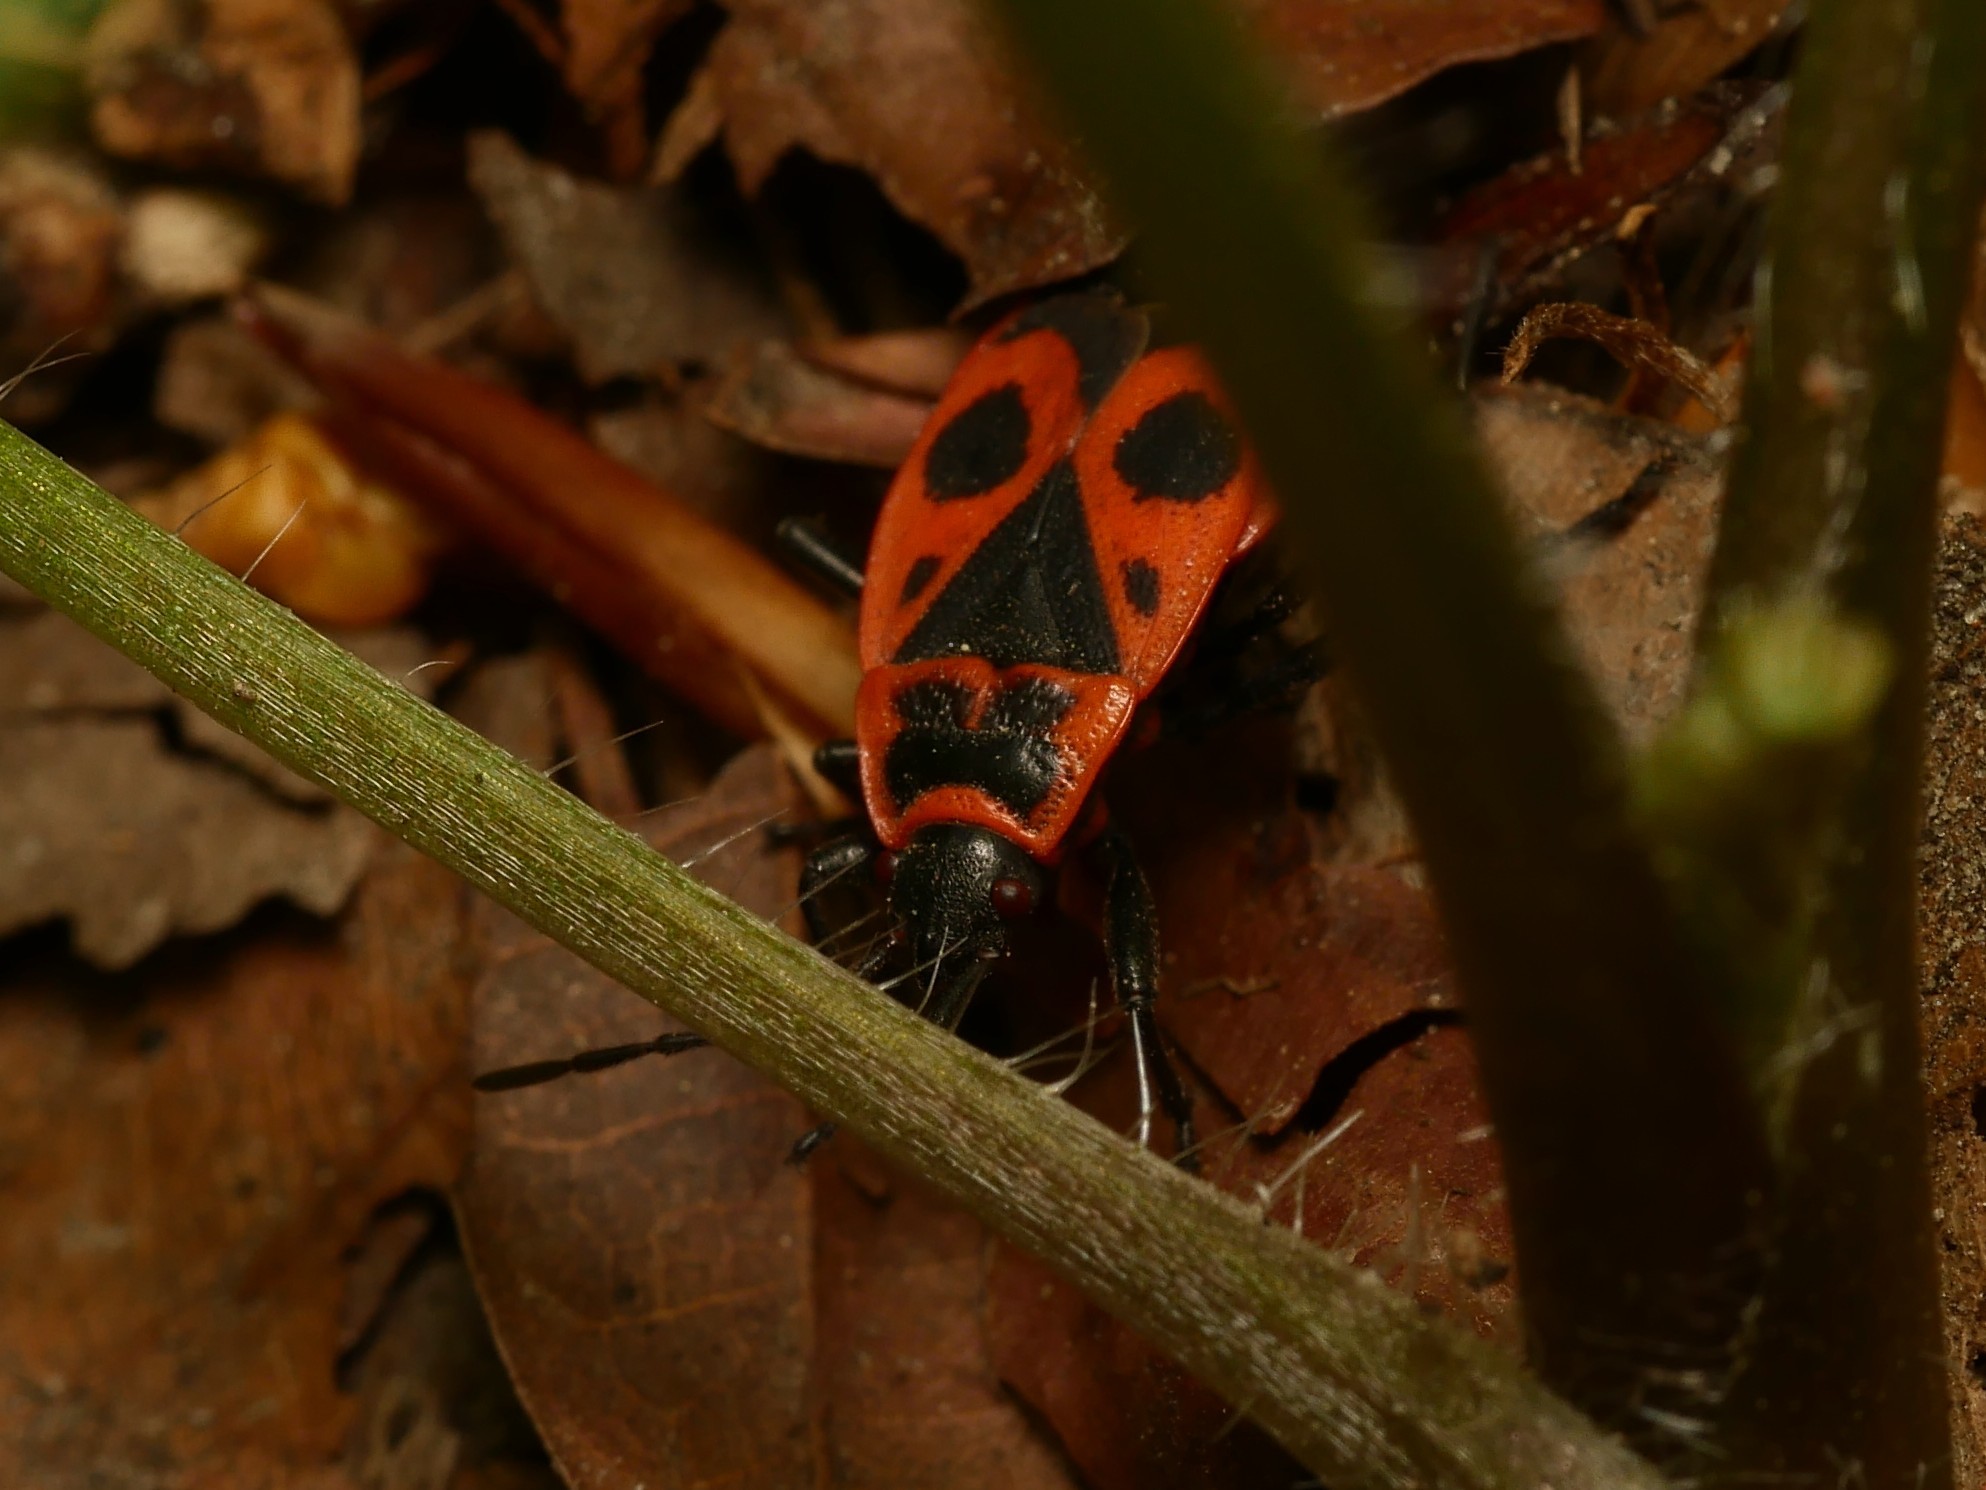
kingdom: Animalia
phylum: Arthropoda
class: Insecta
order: Hemiptera
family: Pyrrhocoridae
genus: Pyrrhocoris
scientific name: Pyrrhocoris apterus
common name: Firebug
